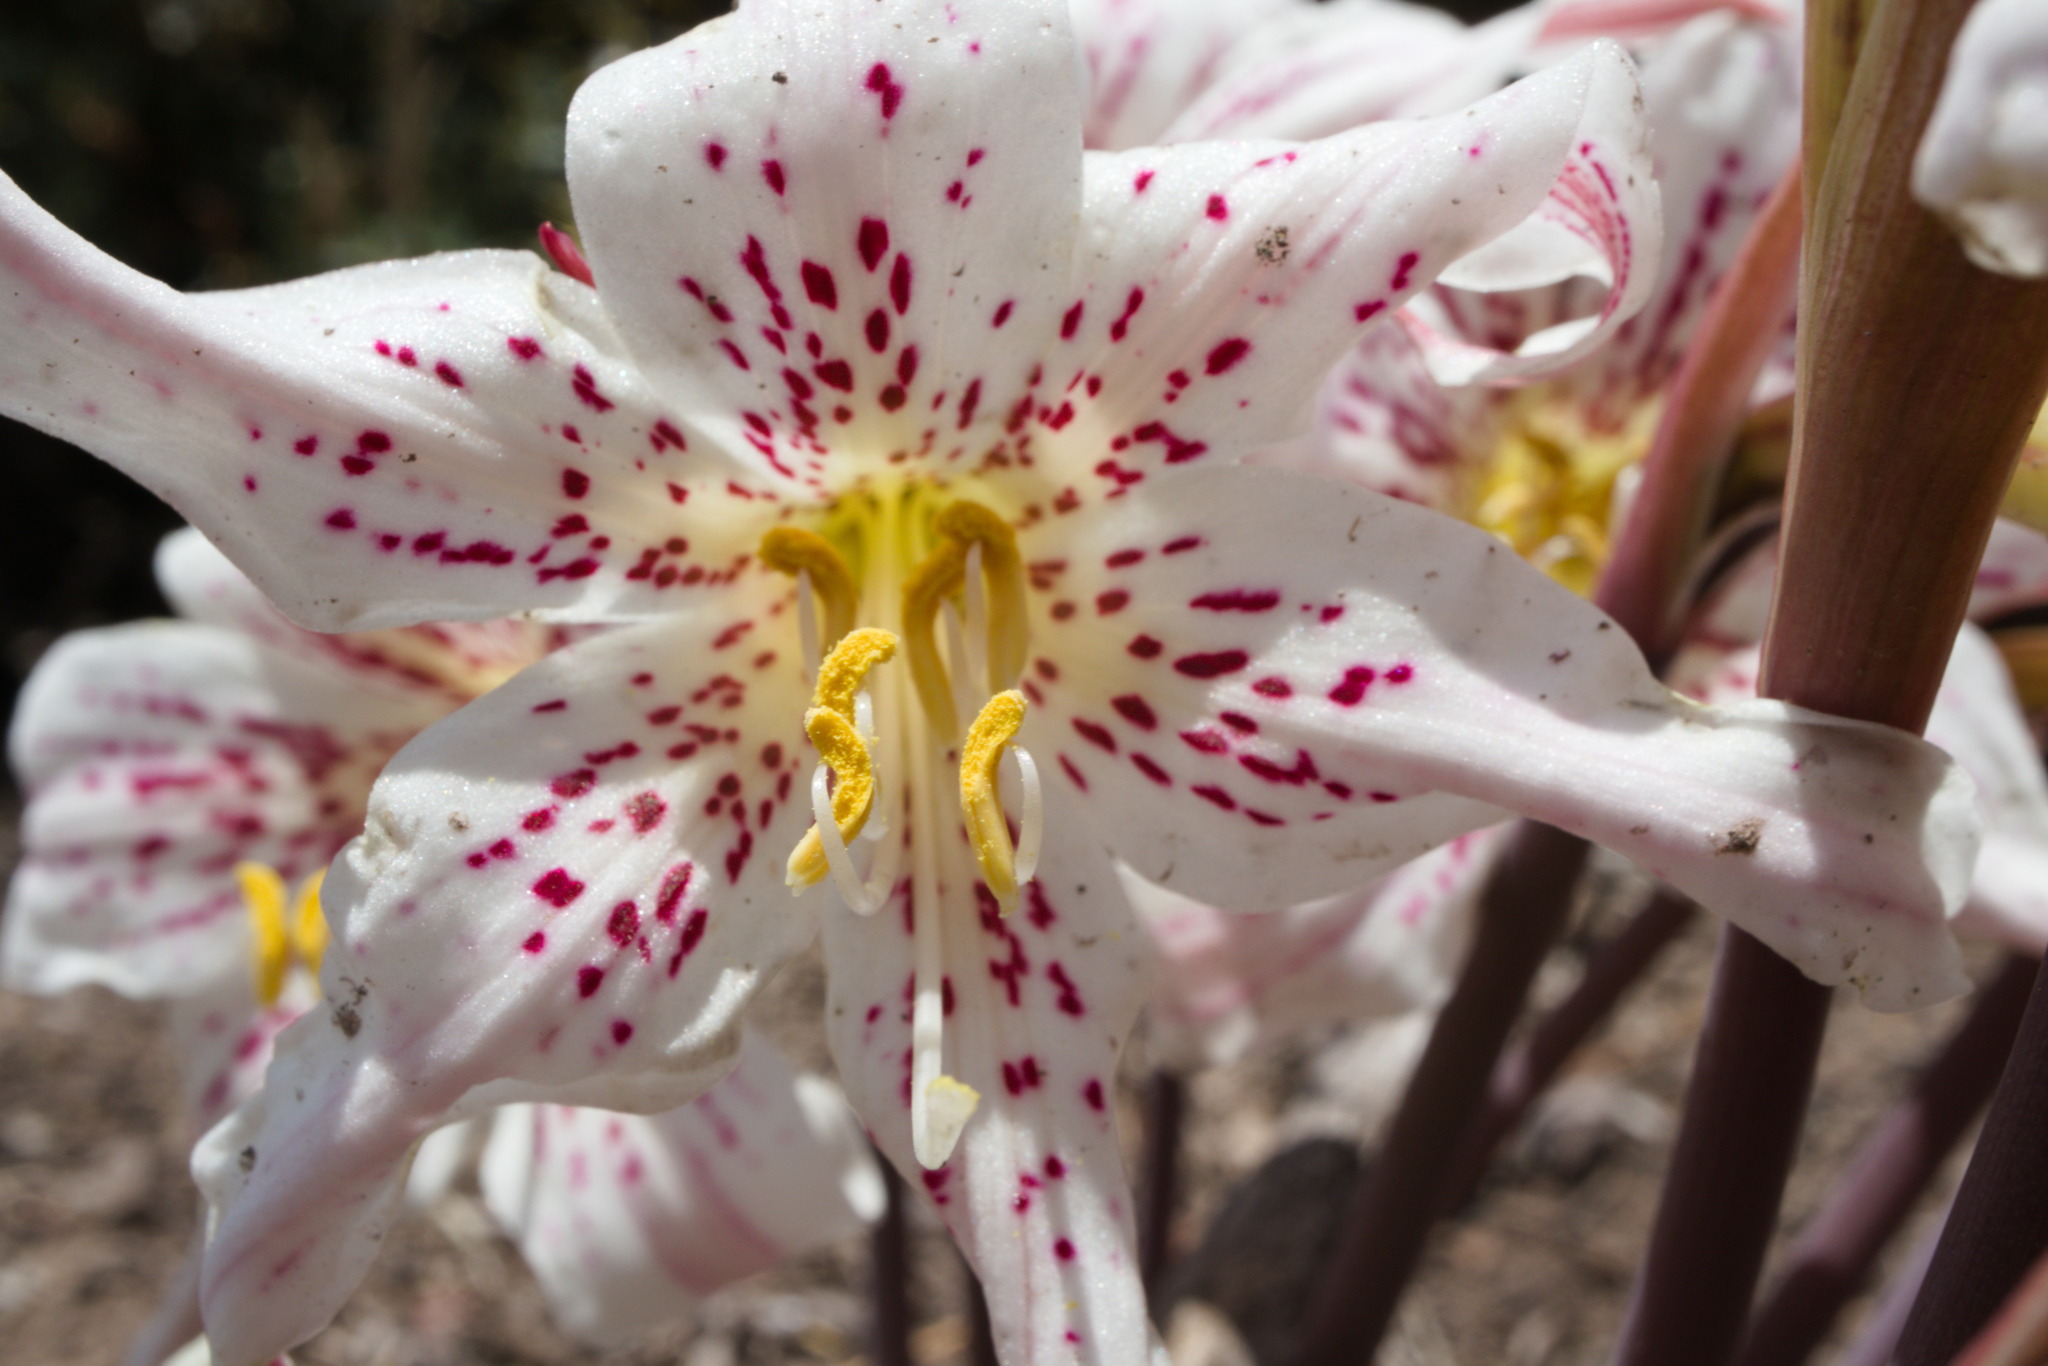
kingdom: Plantae
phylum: Tracheophyta
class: Liliopsida
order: Asparagales
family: Amaryllidaceae
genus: Rhodolirium
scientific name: Rhodolirium montanum
